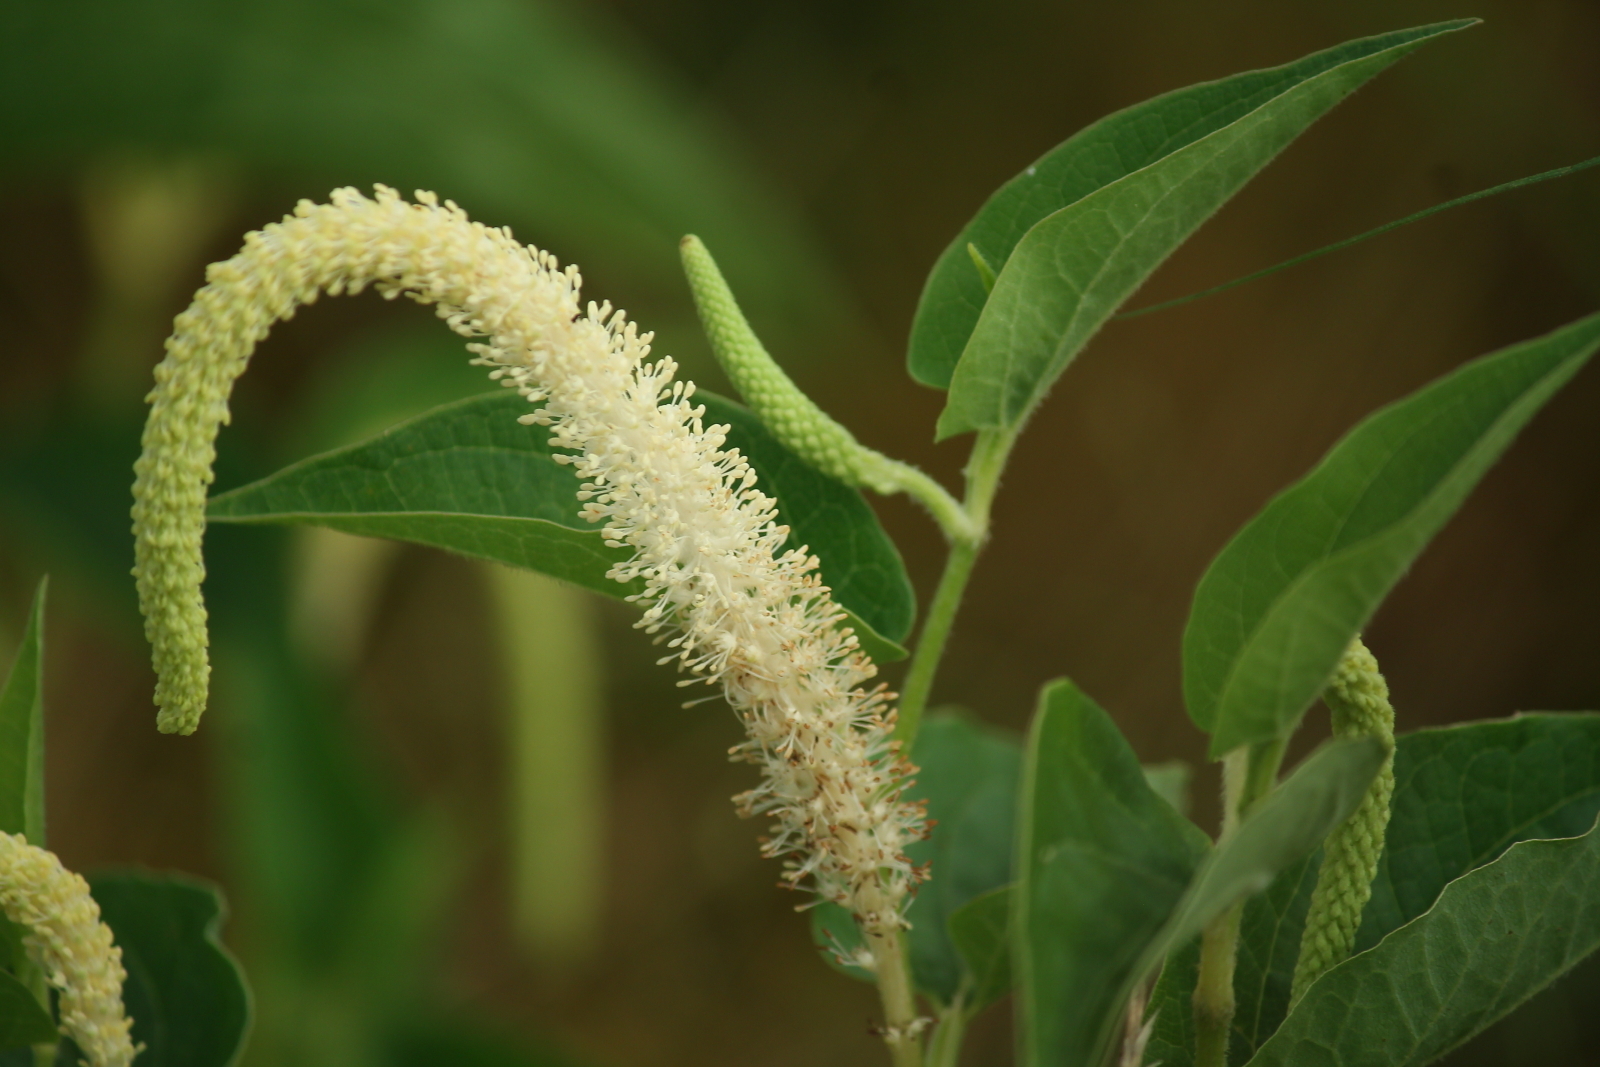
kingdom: Plantae
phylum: Tracheophyta
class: Magnoliopsida
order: Piperales
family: Saururaceae
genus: Saururus
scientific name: Saururus cernuus
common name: Lizard's-tail
